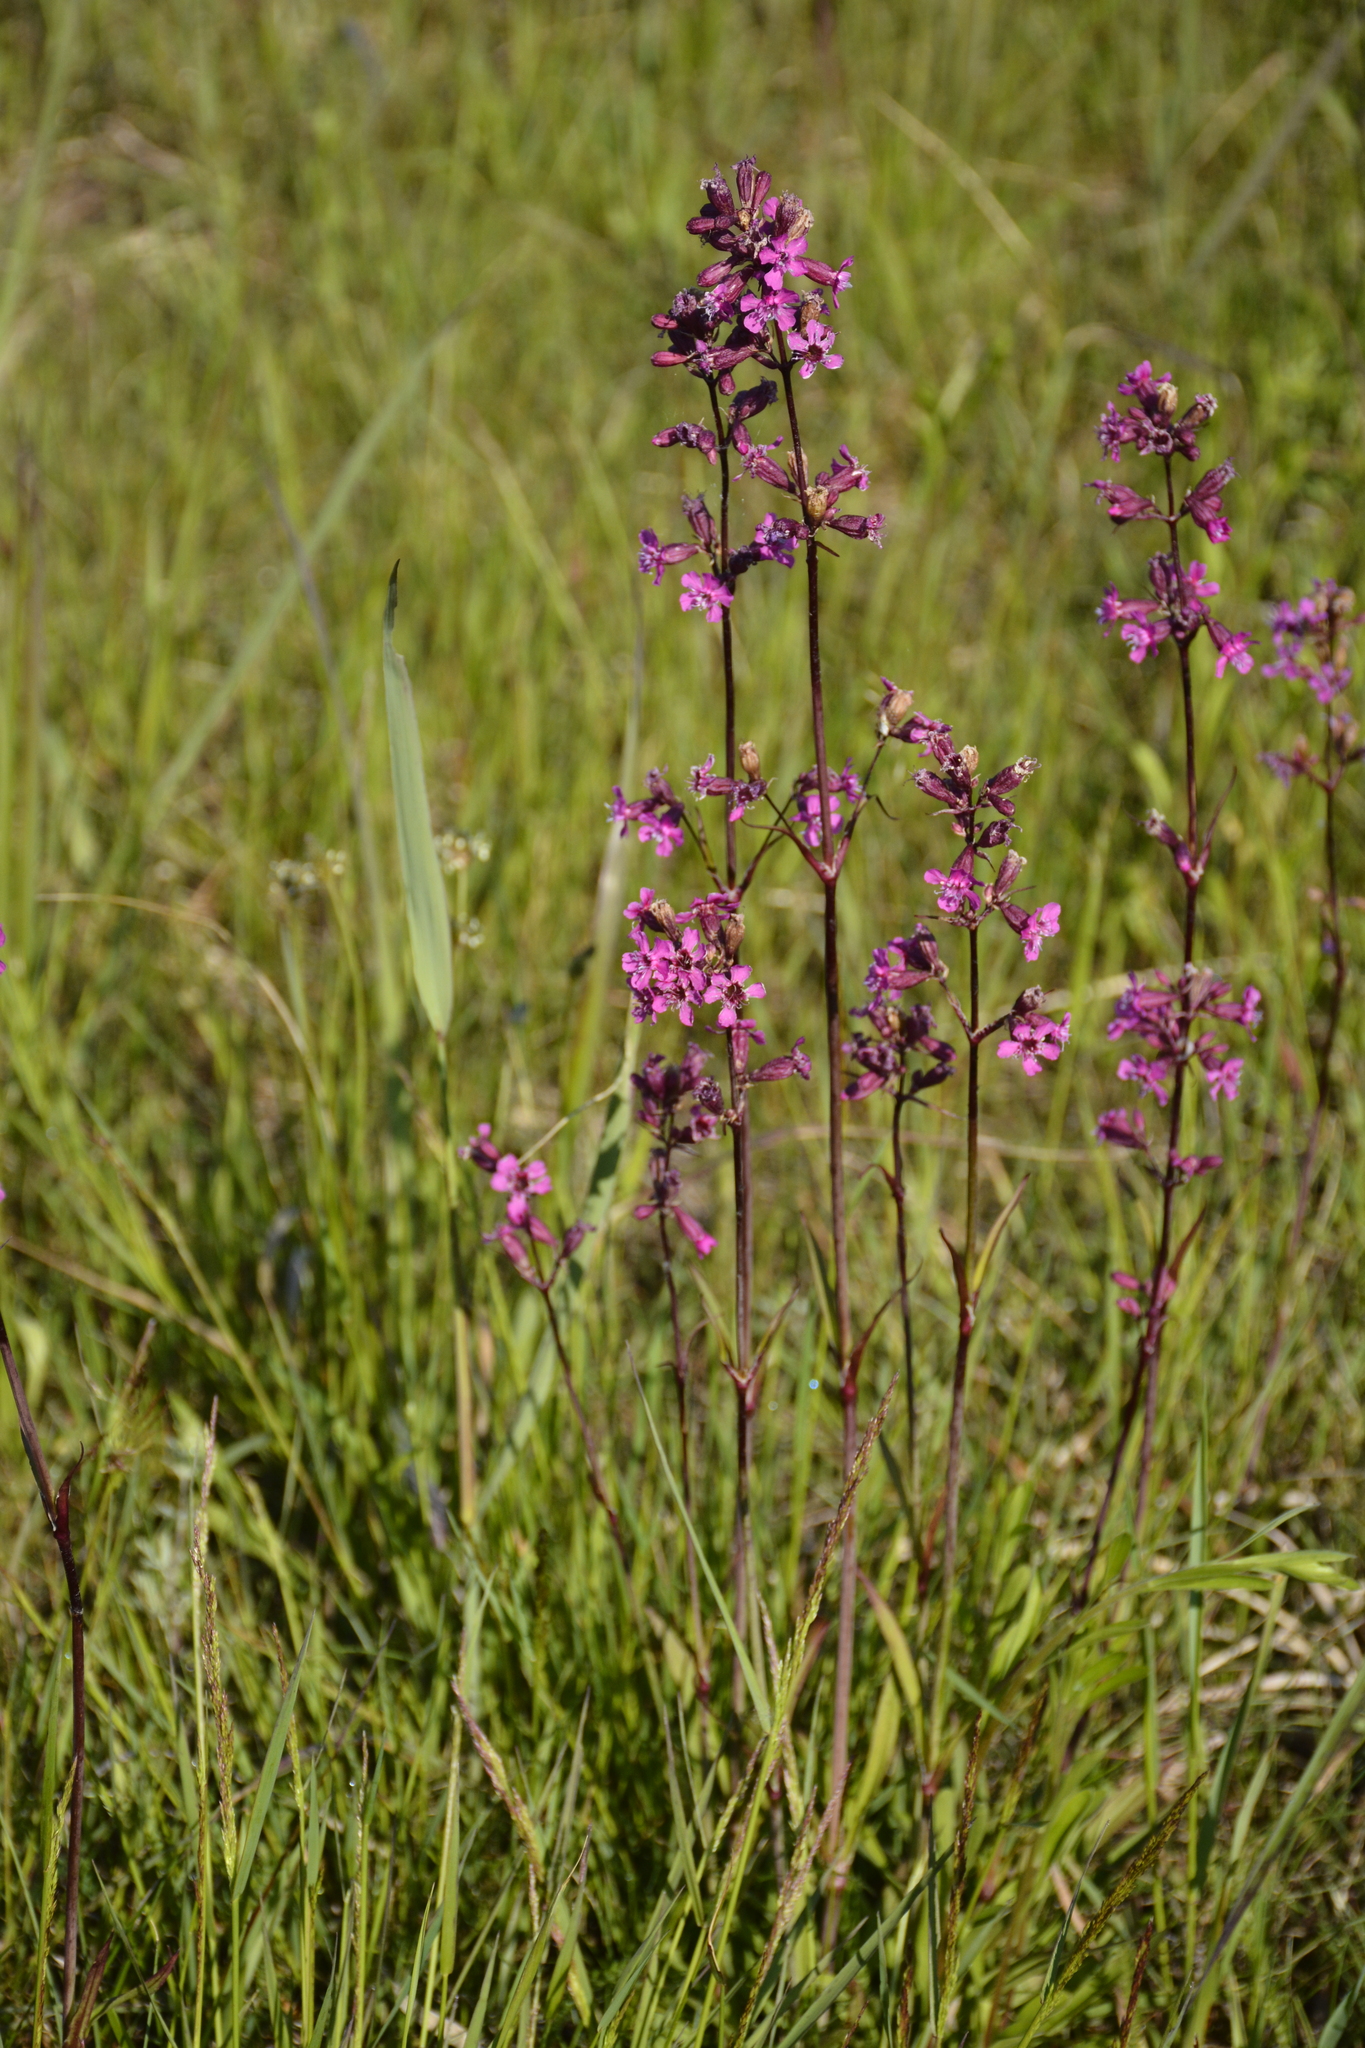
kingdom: Plantae
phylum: Tracheophyta
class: Magnoliopsida
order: Caryophyllales
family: Caryophyllaceae
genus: Viscaria
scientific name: Viscaria vulgaris
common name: Clammy campion
